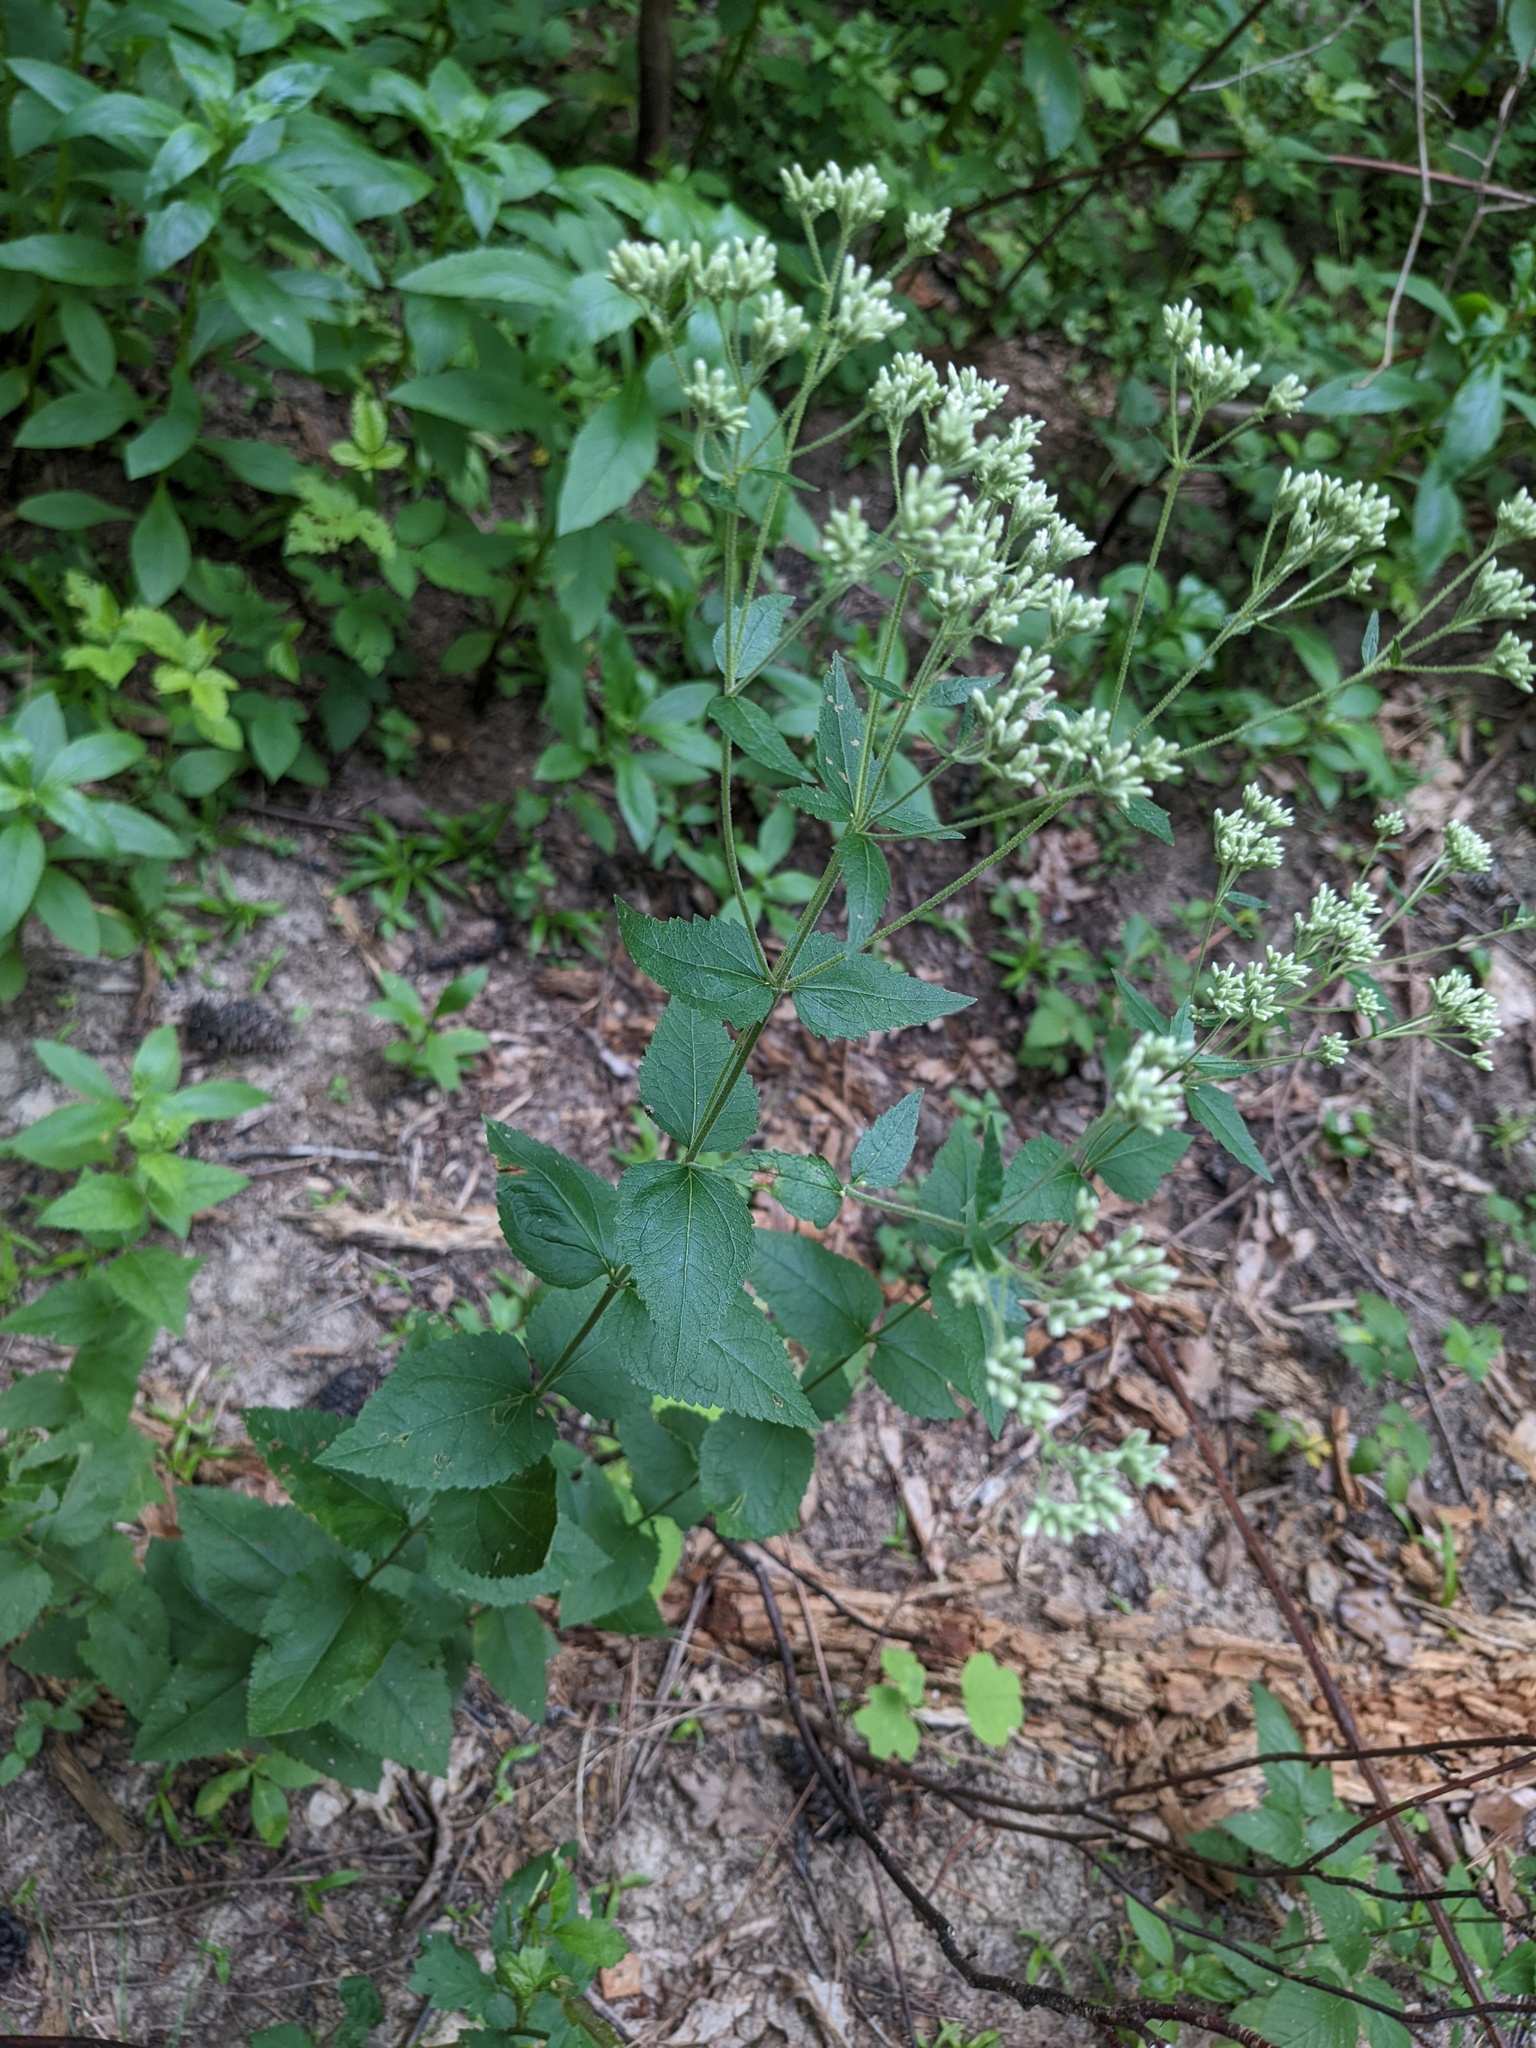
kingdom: Plantae
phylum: Tracheophyta
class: Magnoliopsida
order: Asterales
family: Asteraceae
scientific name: Asteraceae
